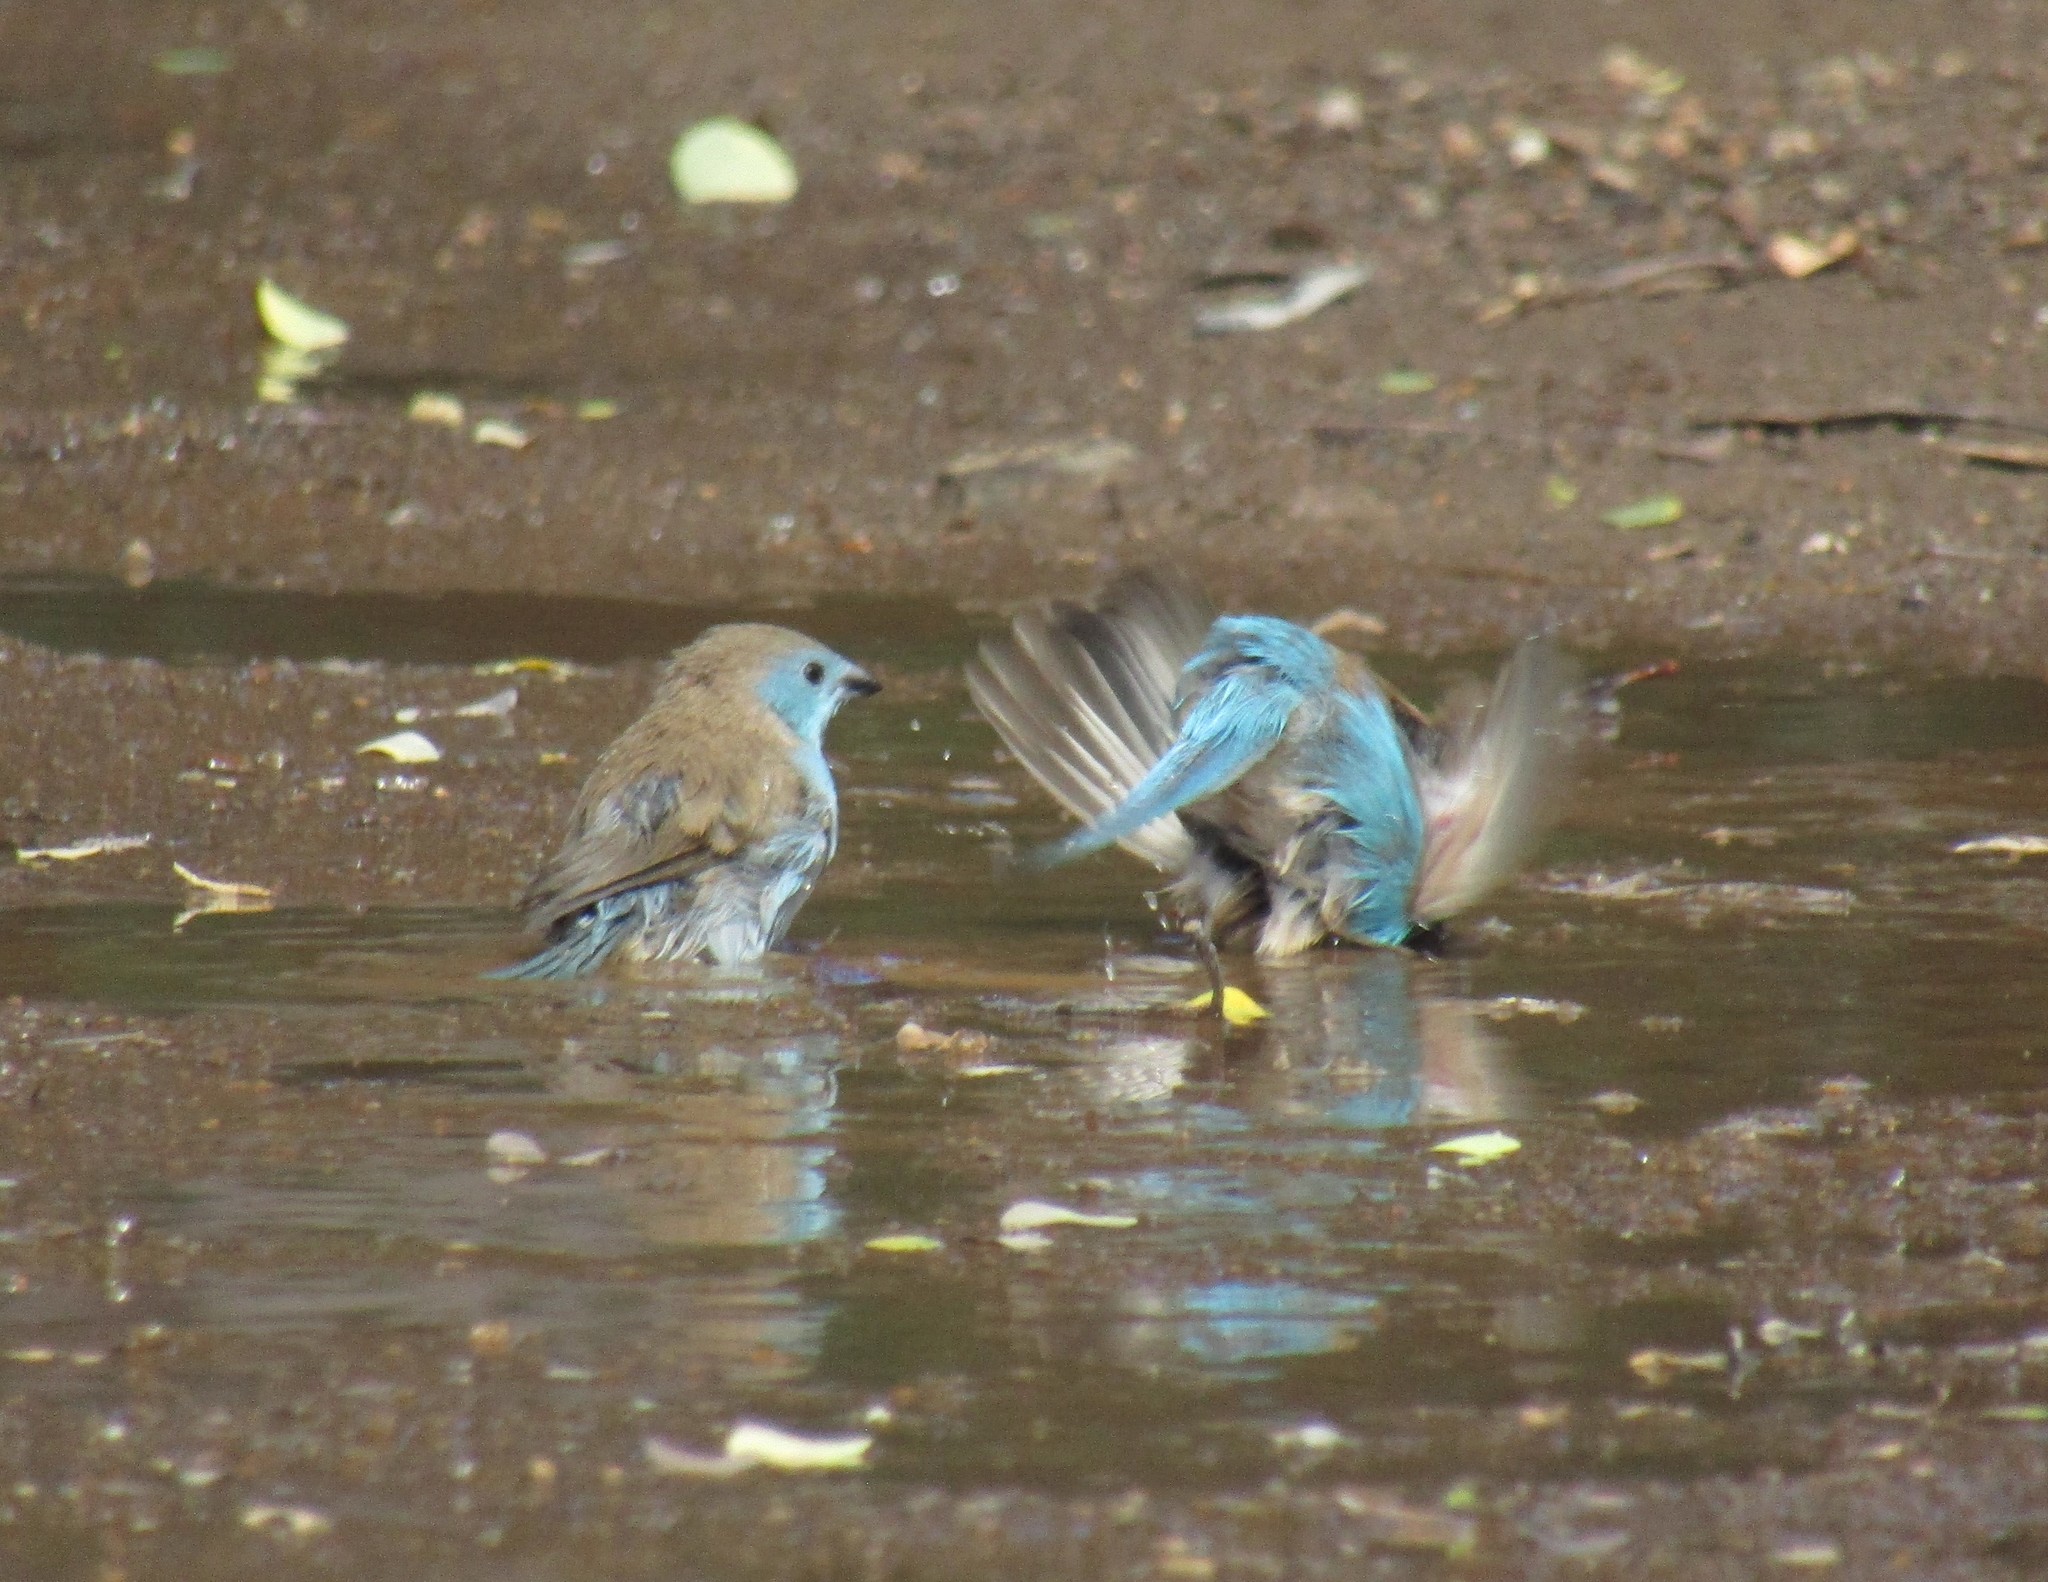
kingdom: Animalia
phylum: Chordata
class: Aves
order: Passeriformes
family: Estrildidae
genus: Uraeginthus
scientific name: Uraeginthus angolensis
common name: Blue waxbill
